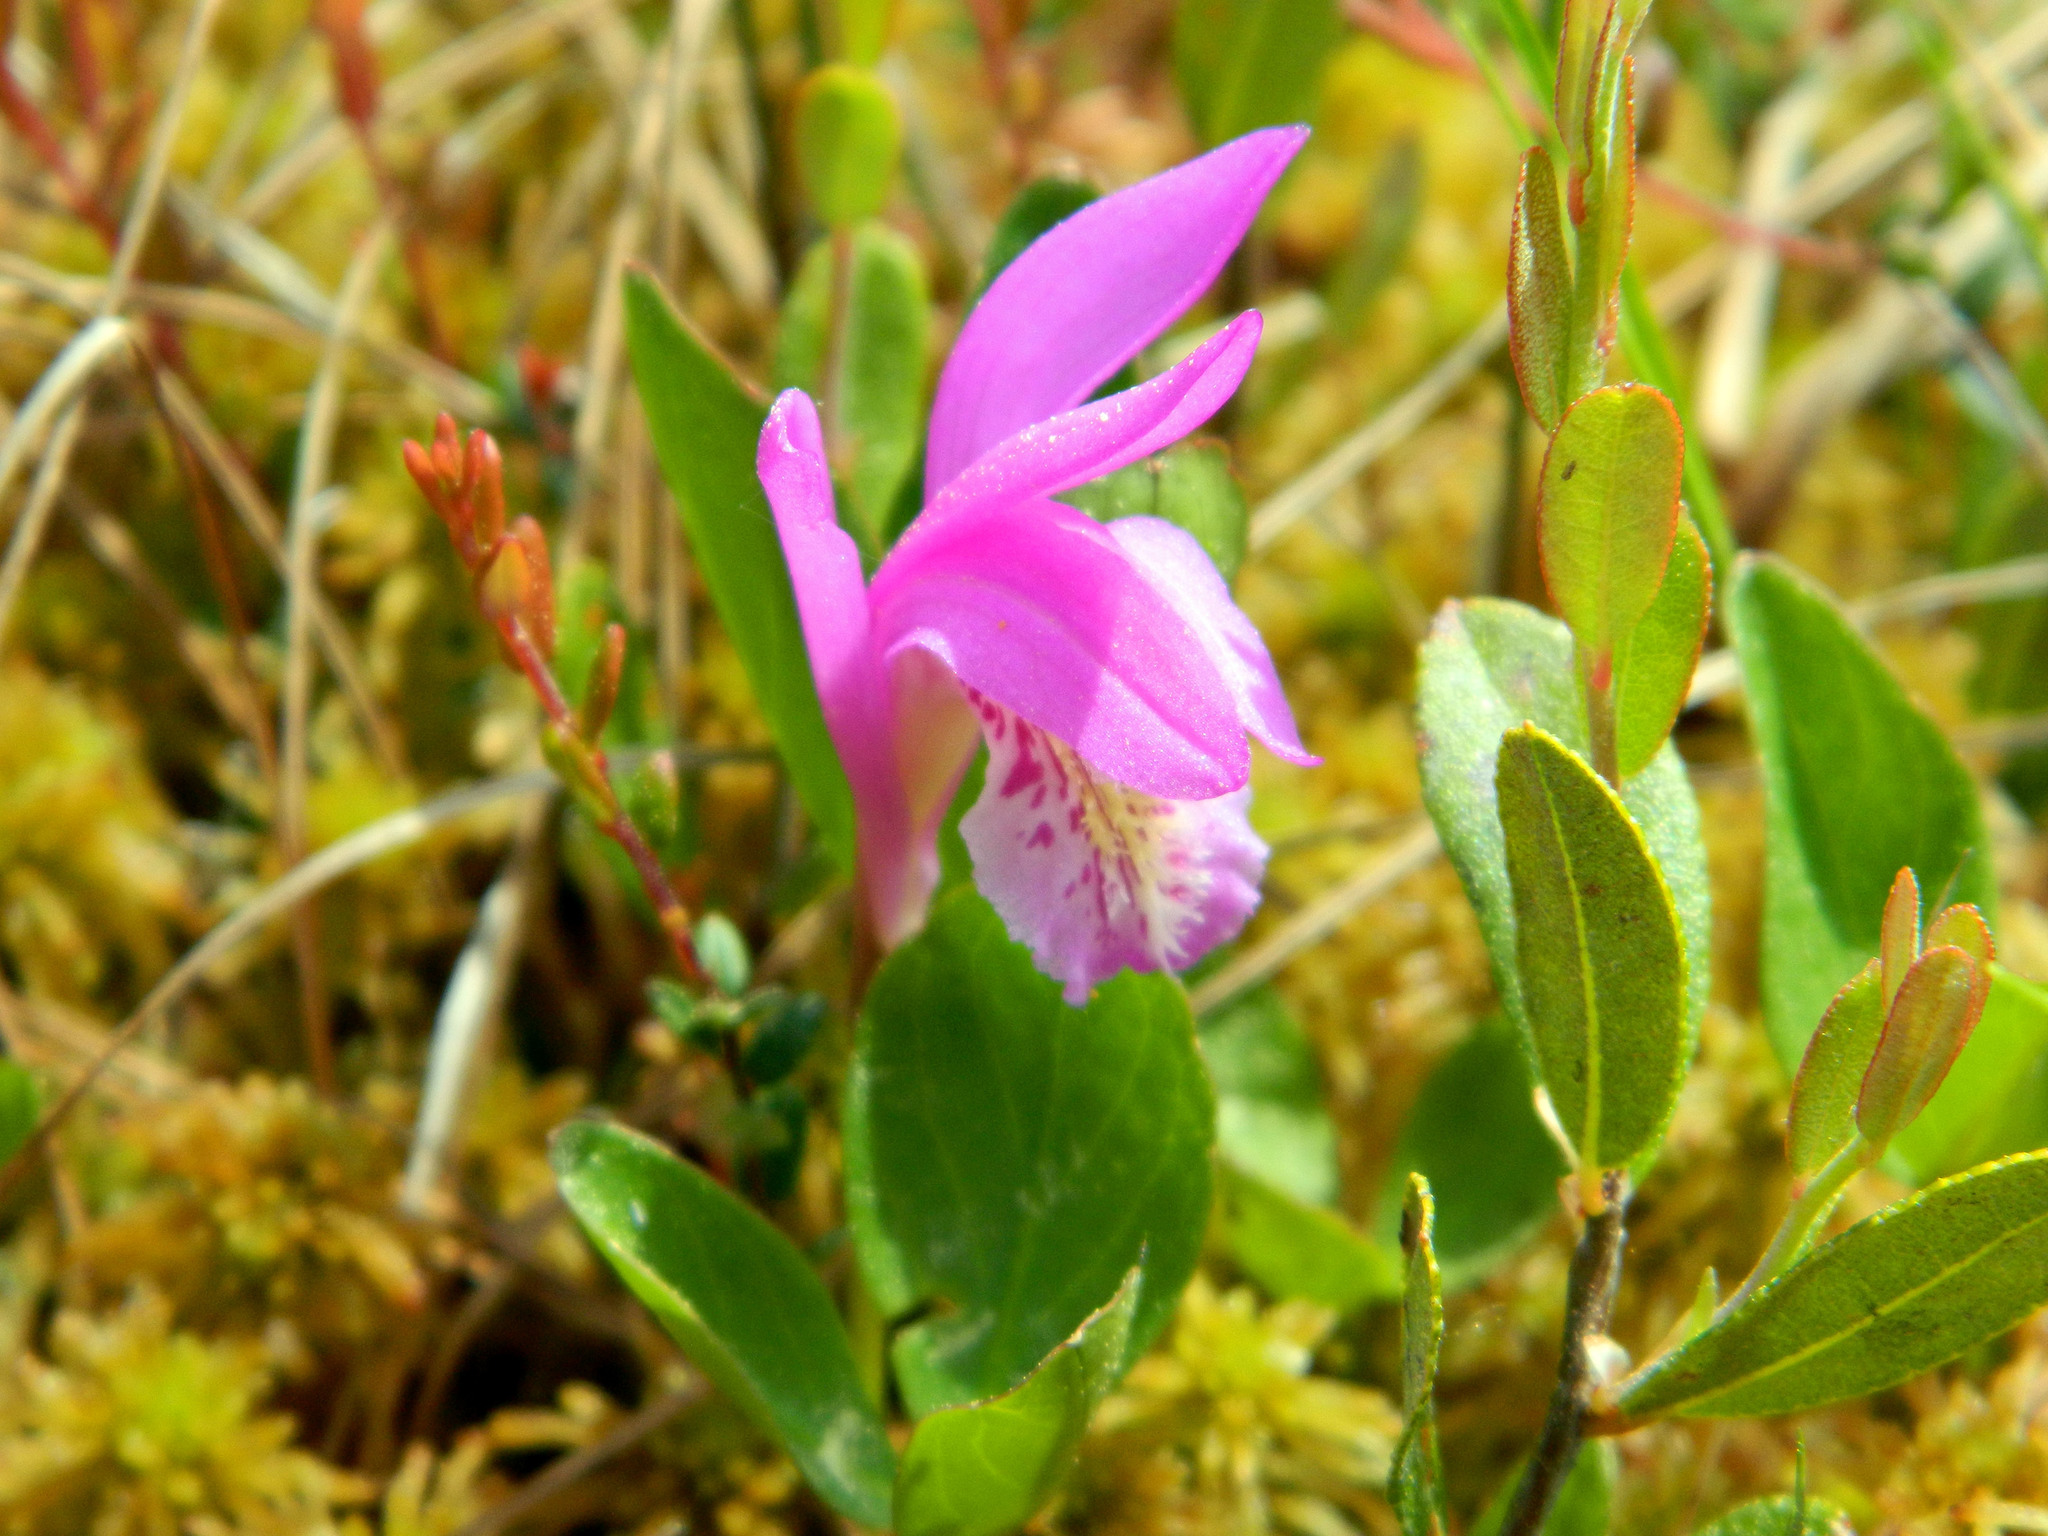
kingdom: Plantae
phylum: Tracheophyta
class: Liliopsida
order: Asparagales
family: Orchidaceae
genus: Arethusa
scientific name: Arethusa bulbosa
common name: Arethusa
